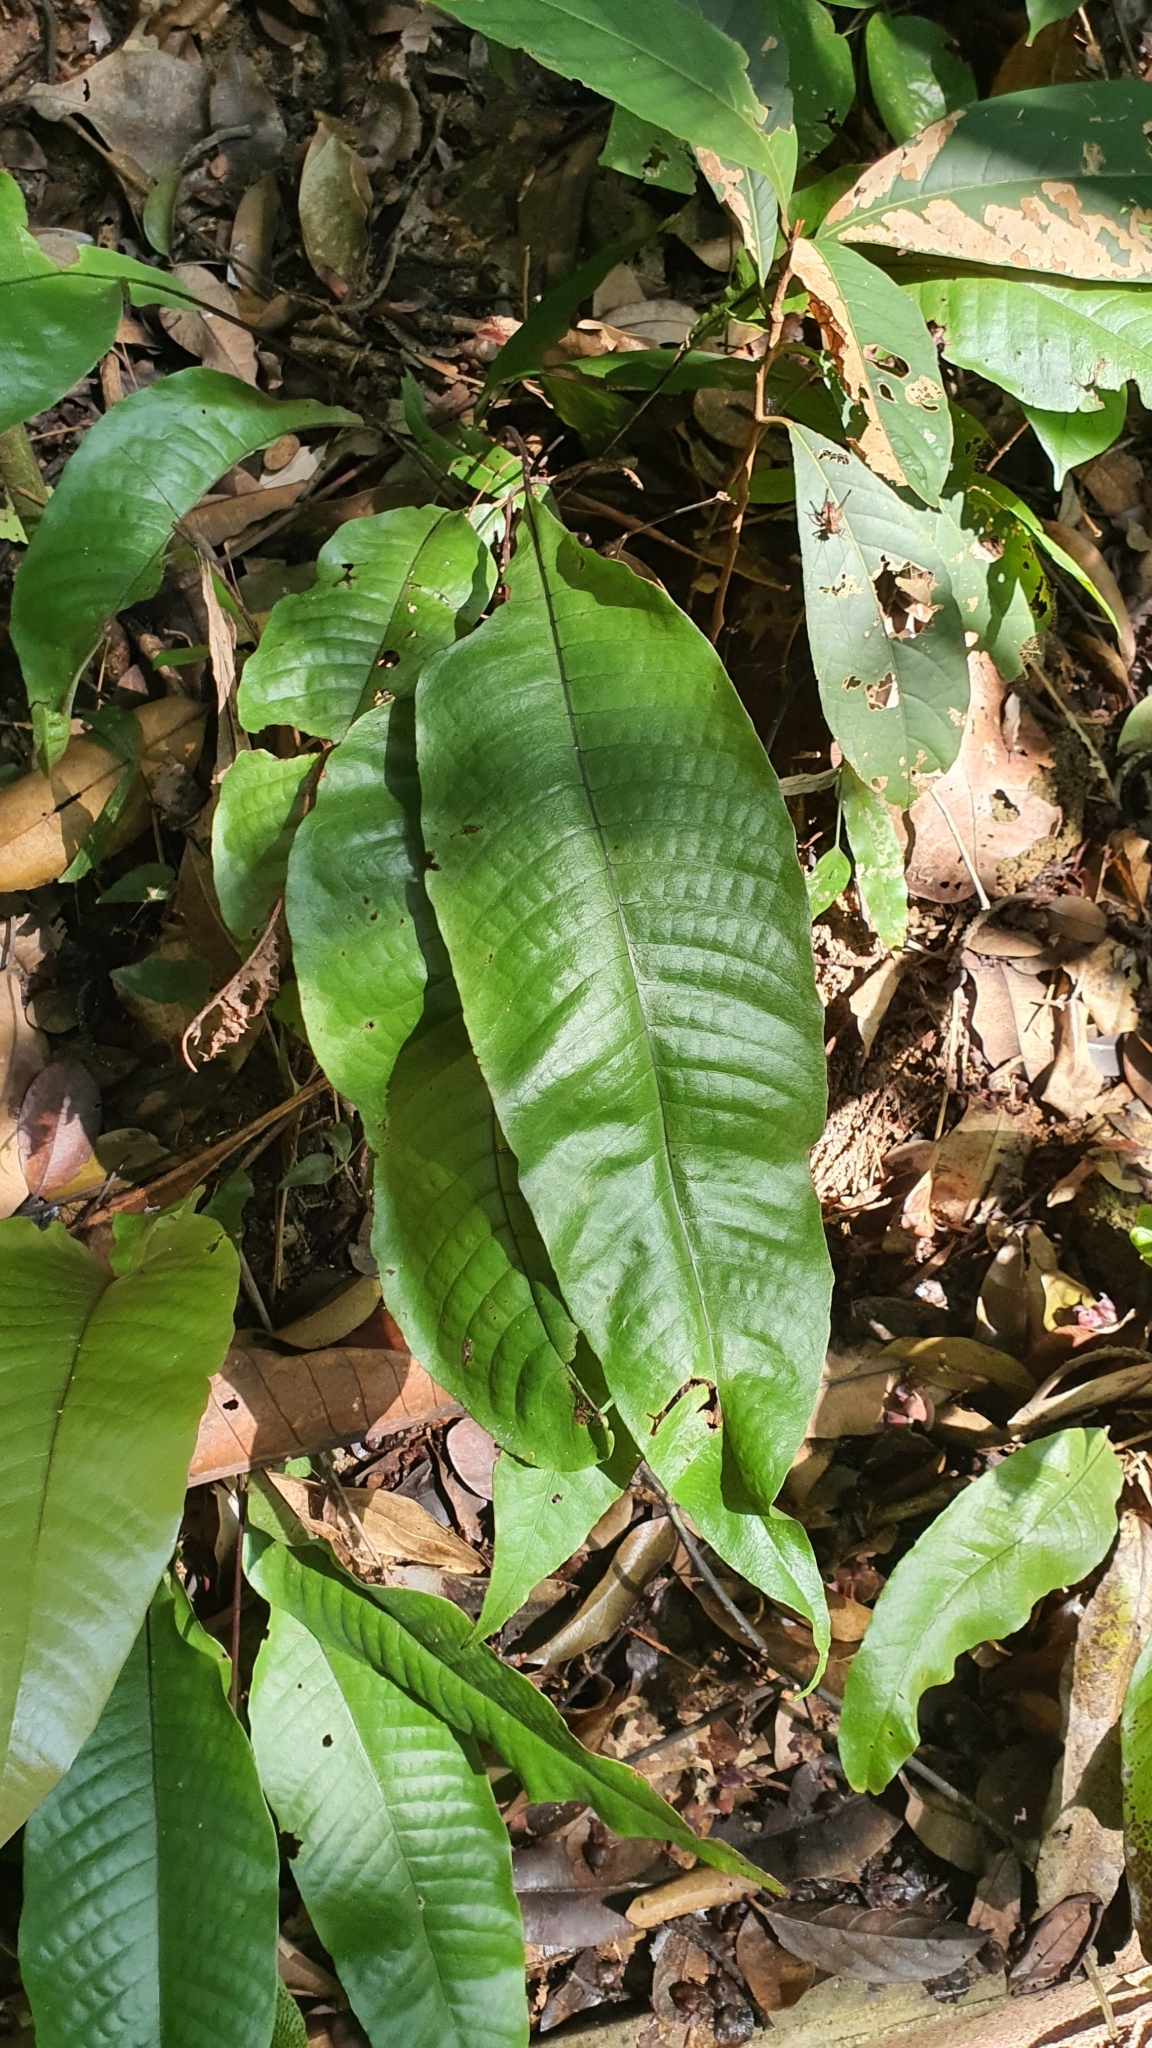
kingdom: Plantae
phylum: Tracheophyta
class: Polypodiopsida
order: Polypodiales
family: Tectariaceae
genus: Tectaria
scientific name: Tectaria singaporiana
